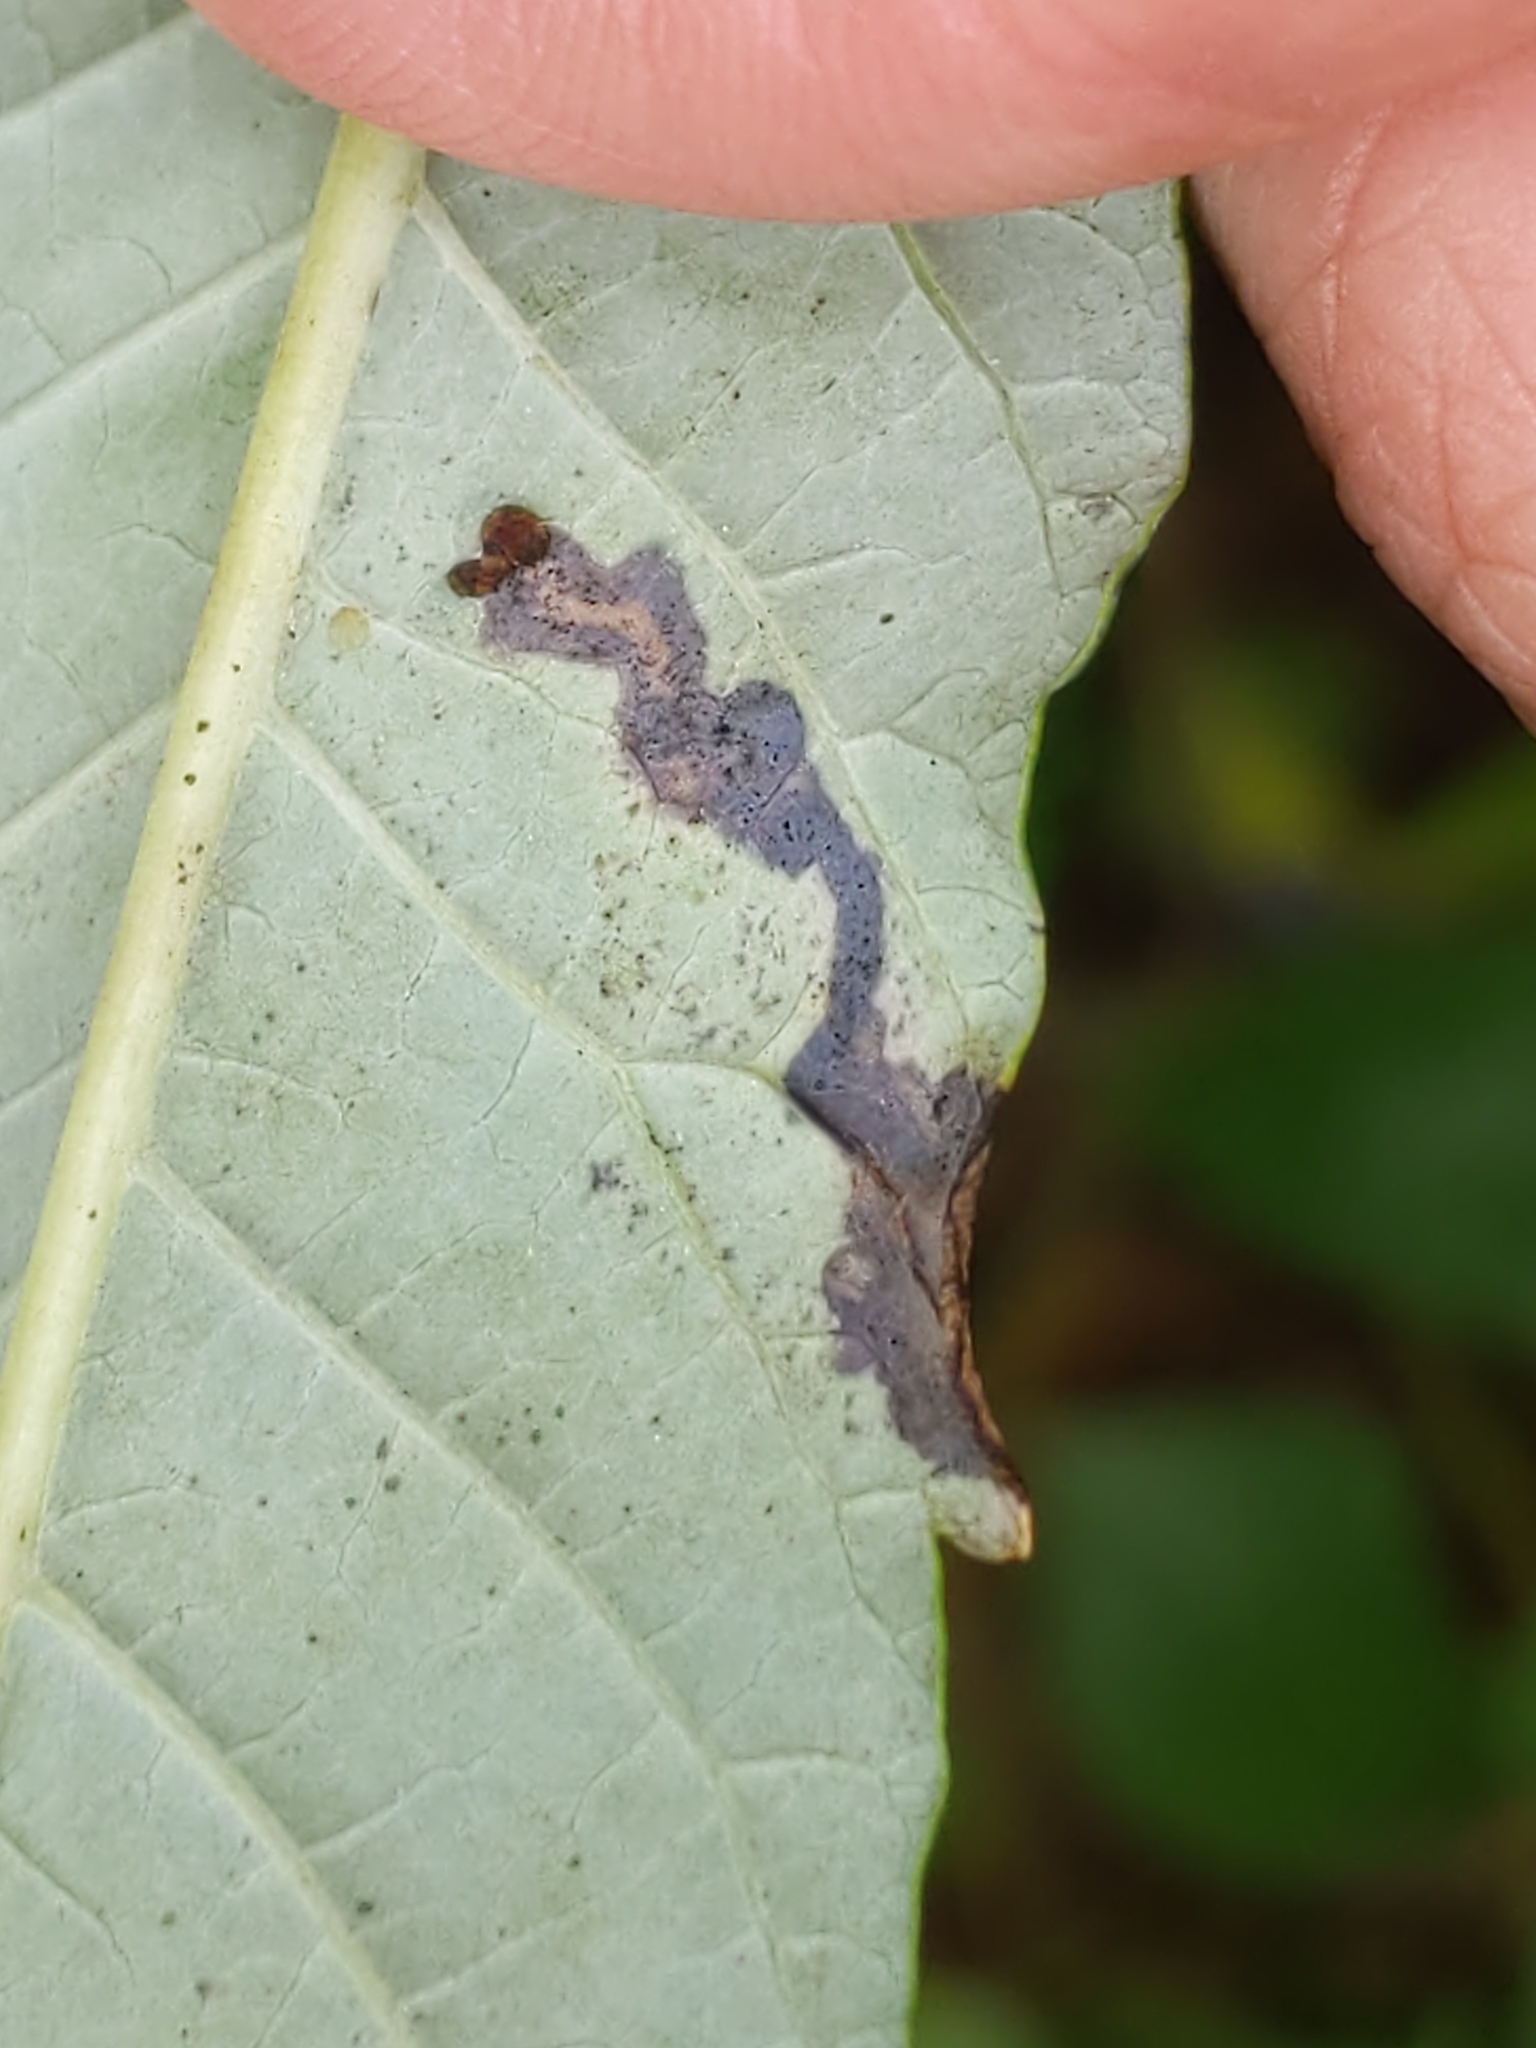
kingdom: Animalia
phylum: Arthropoda
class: Insecta
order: Lepidoptera
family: Nepticulidae
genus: Stigmella
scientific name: Stigmella intermedia
